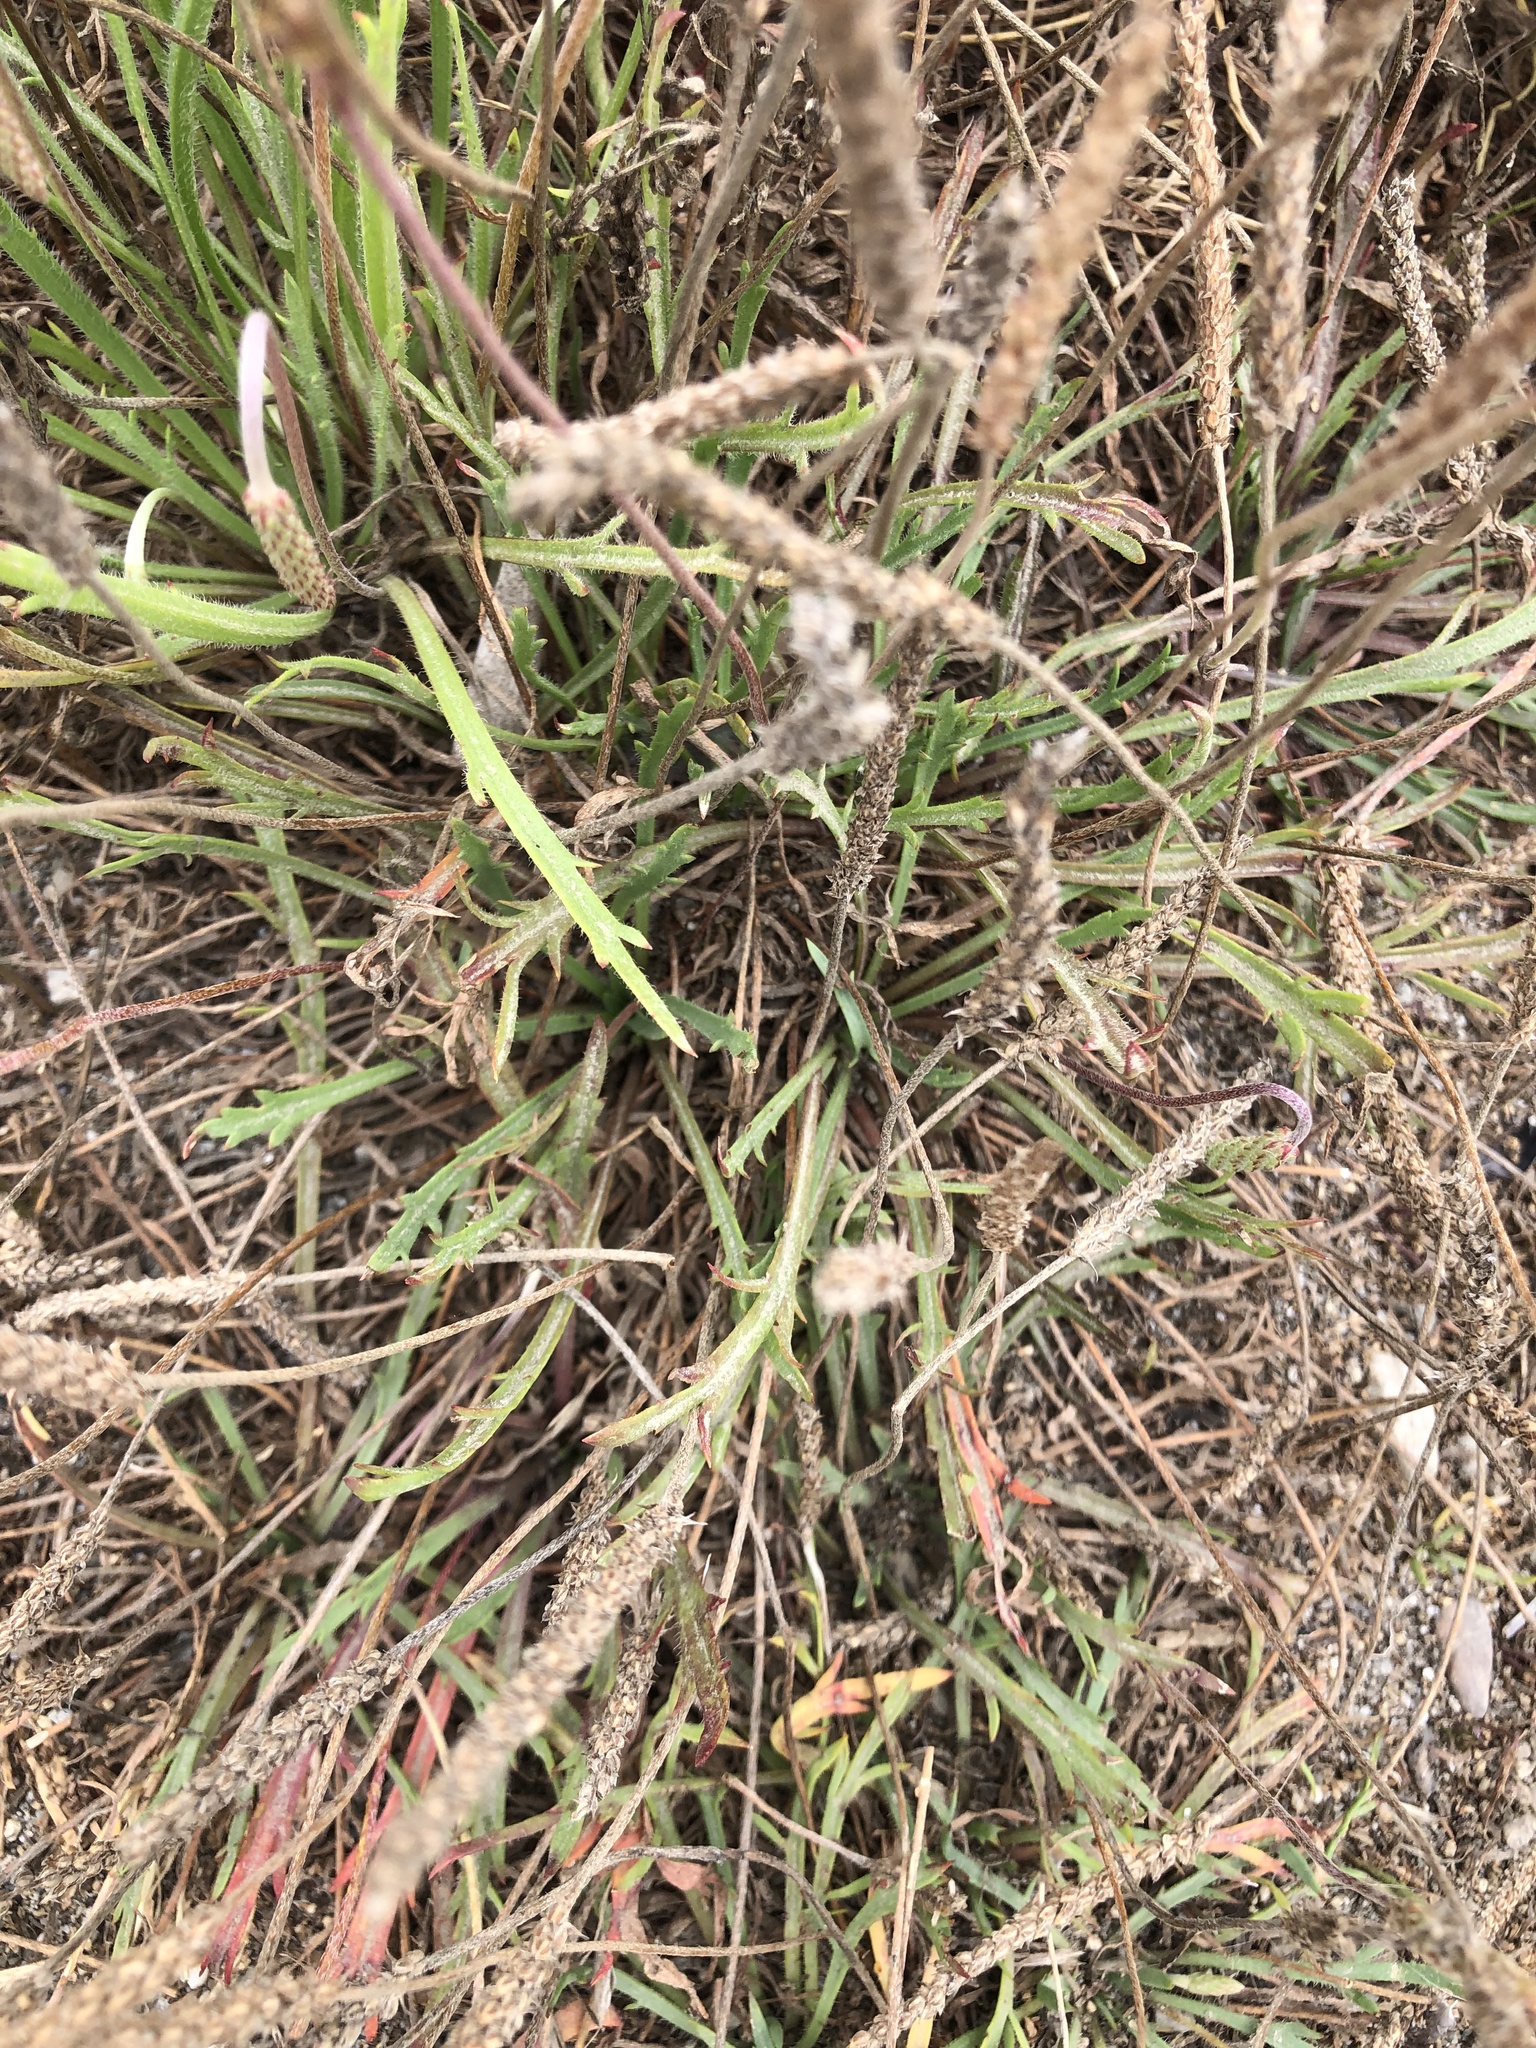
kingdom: Plantae
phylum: Tracheophyta
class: Magnoliopsida
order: Lamiales
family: Plantaginaceae
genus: Plantago
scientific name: Plantago coronopus
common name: Buck's-horn plantain
